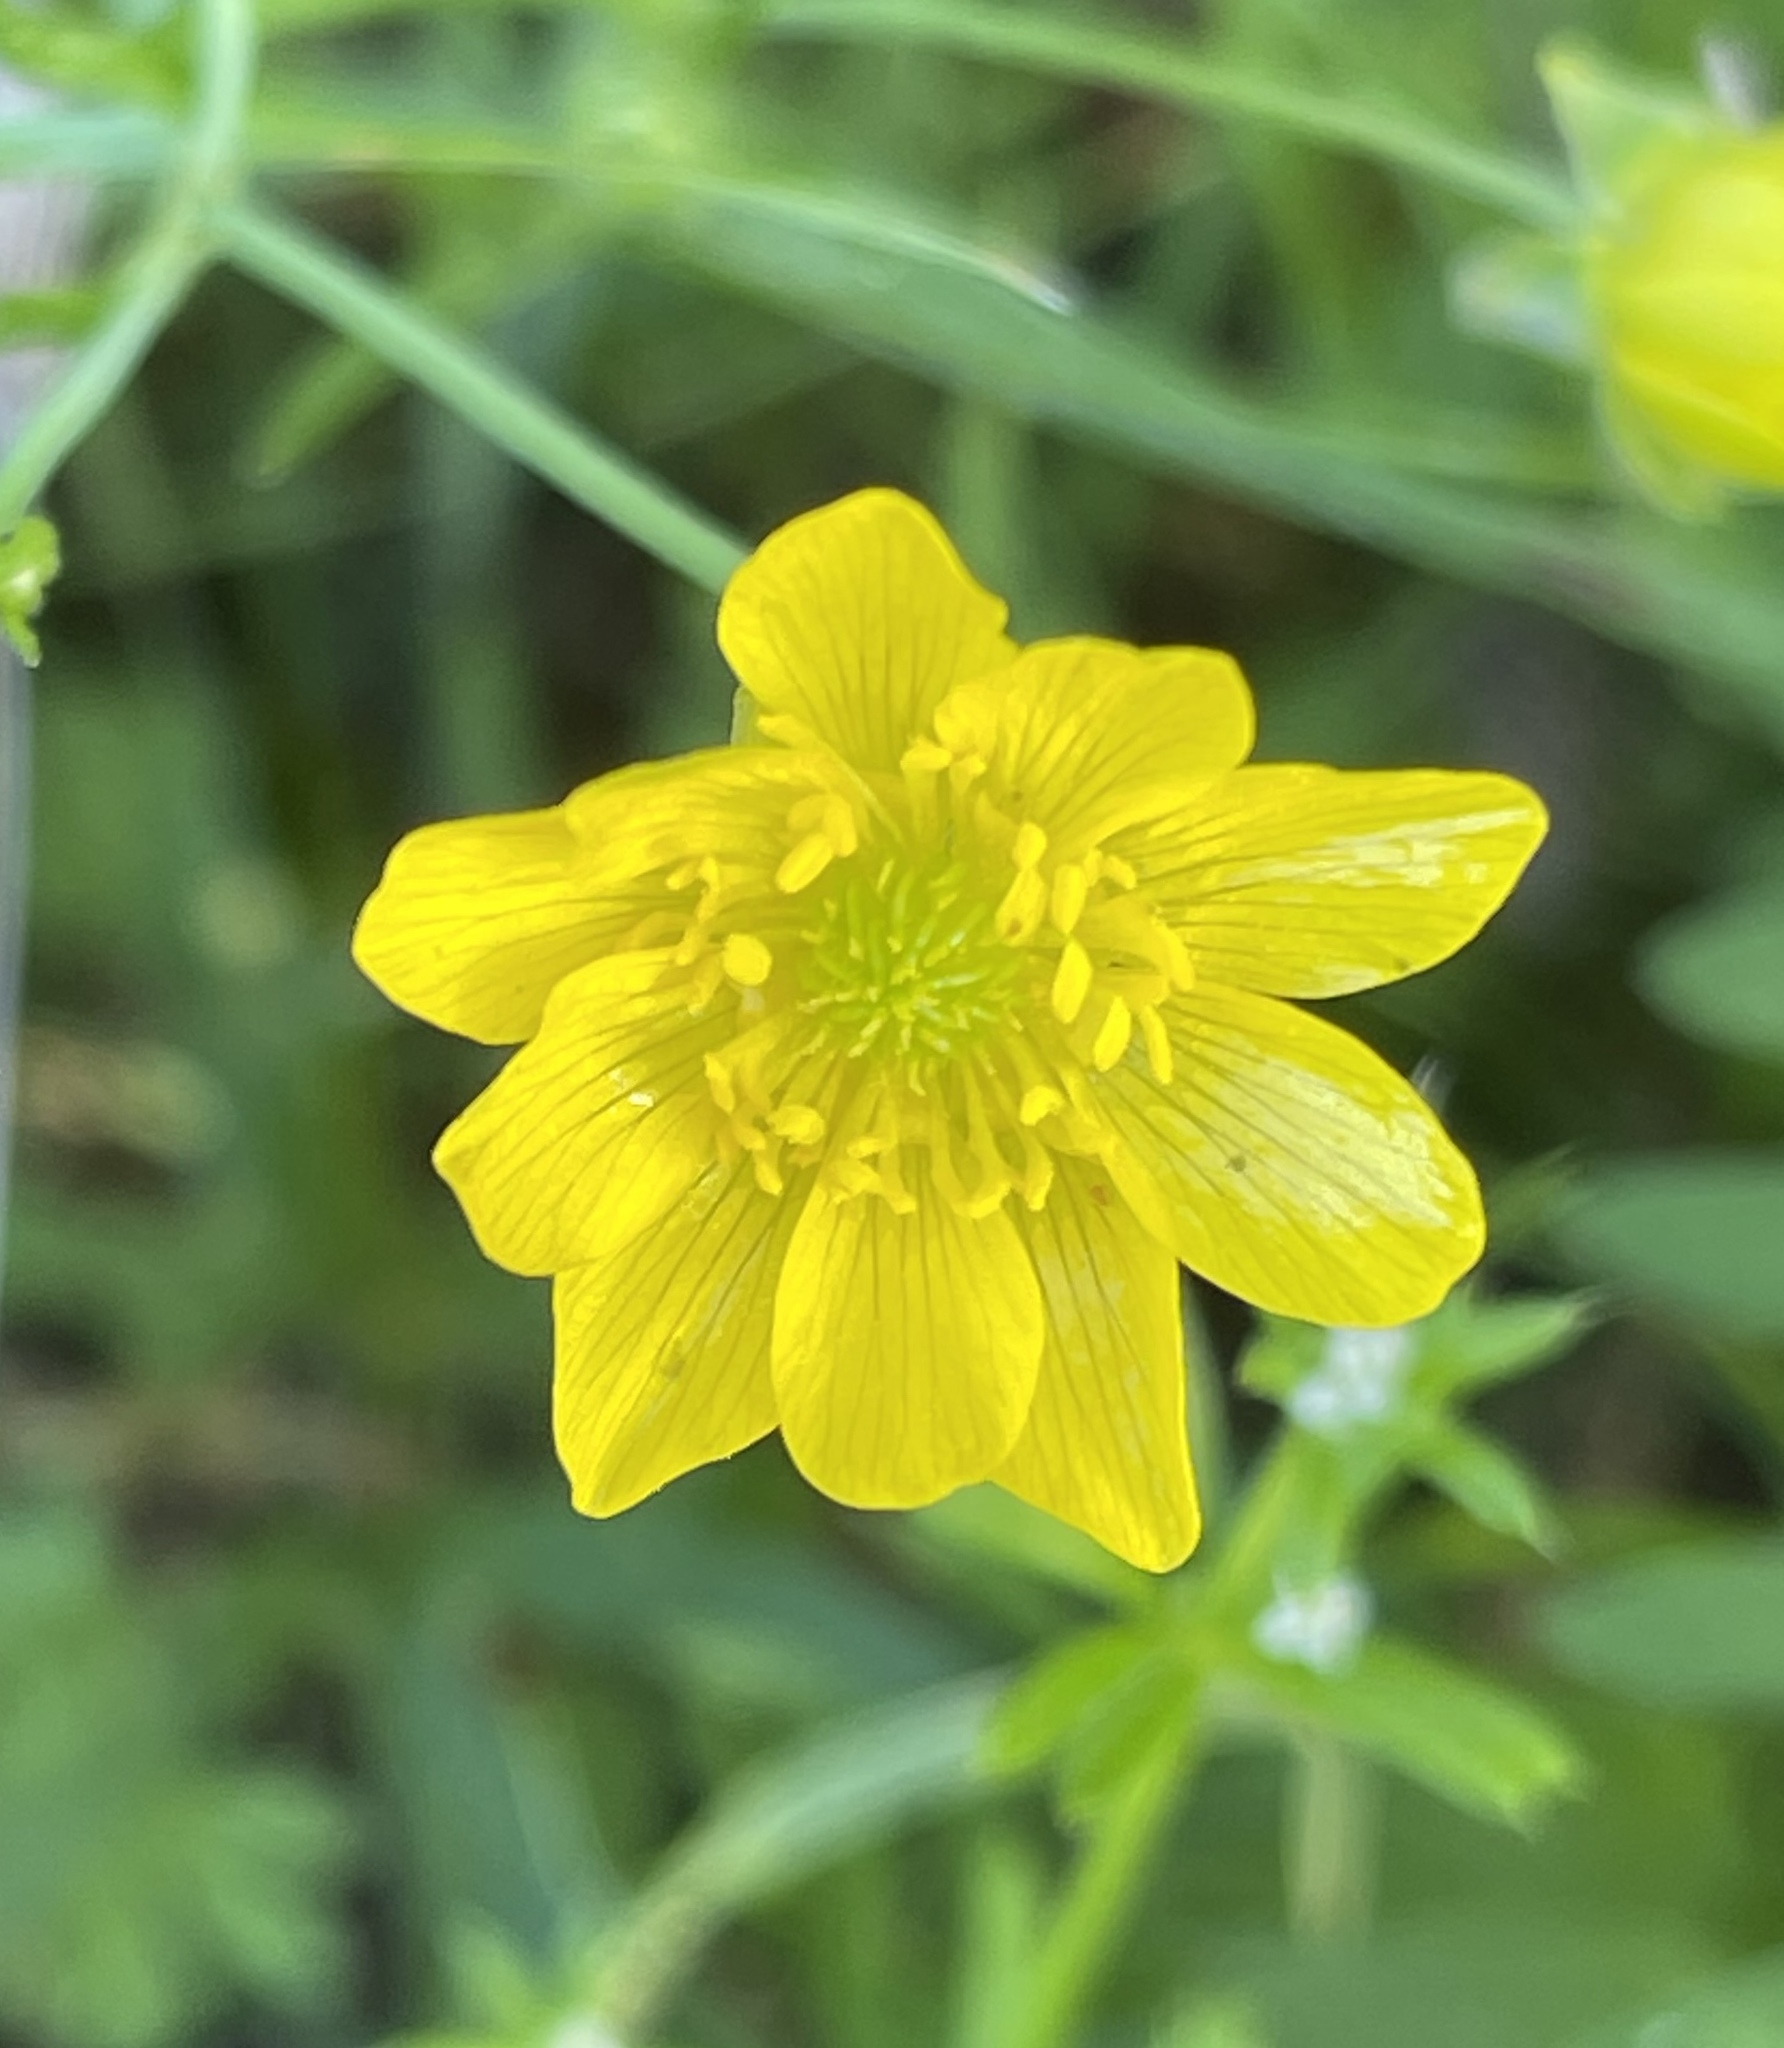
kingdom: Plantae
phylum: Tracheophyta
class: Magnoliopsida
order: Ranunculales
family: Ranunculaceae
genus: Ranunculus
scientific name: Ranunculus californicus
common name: California buttercup
